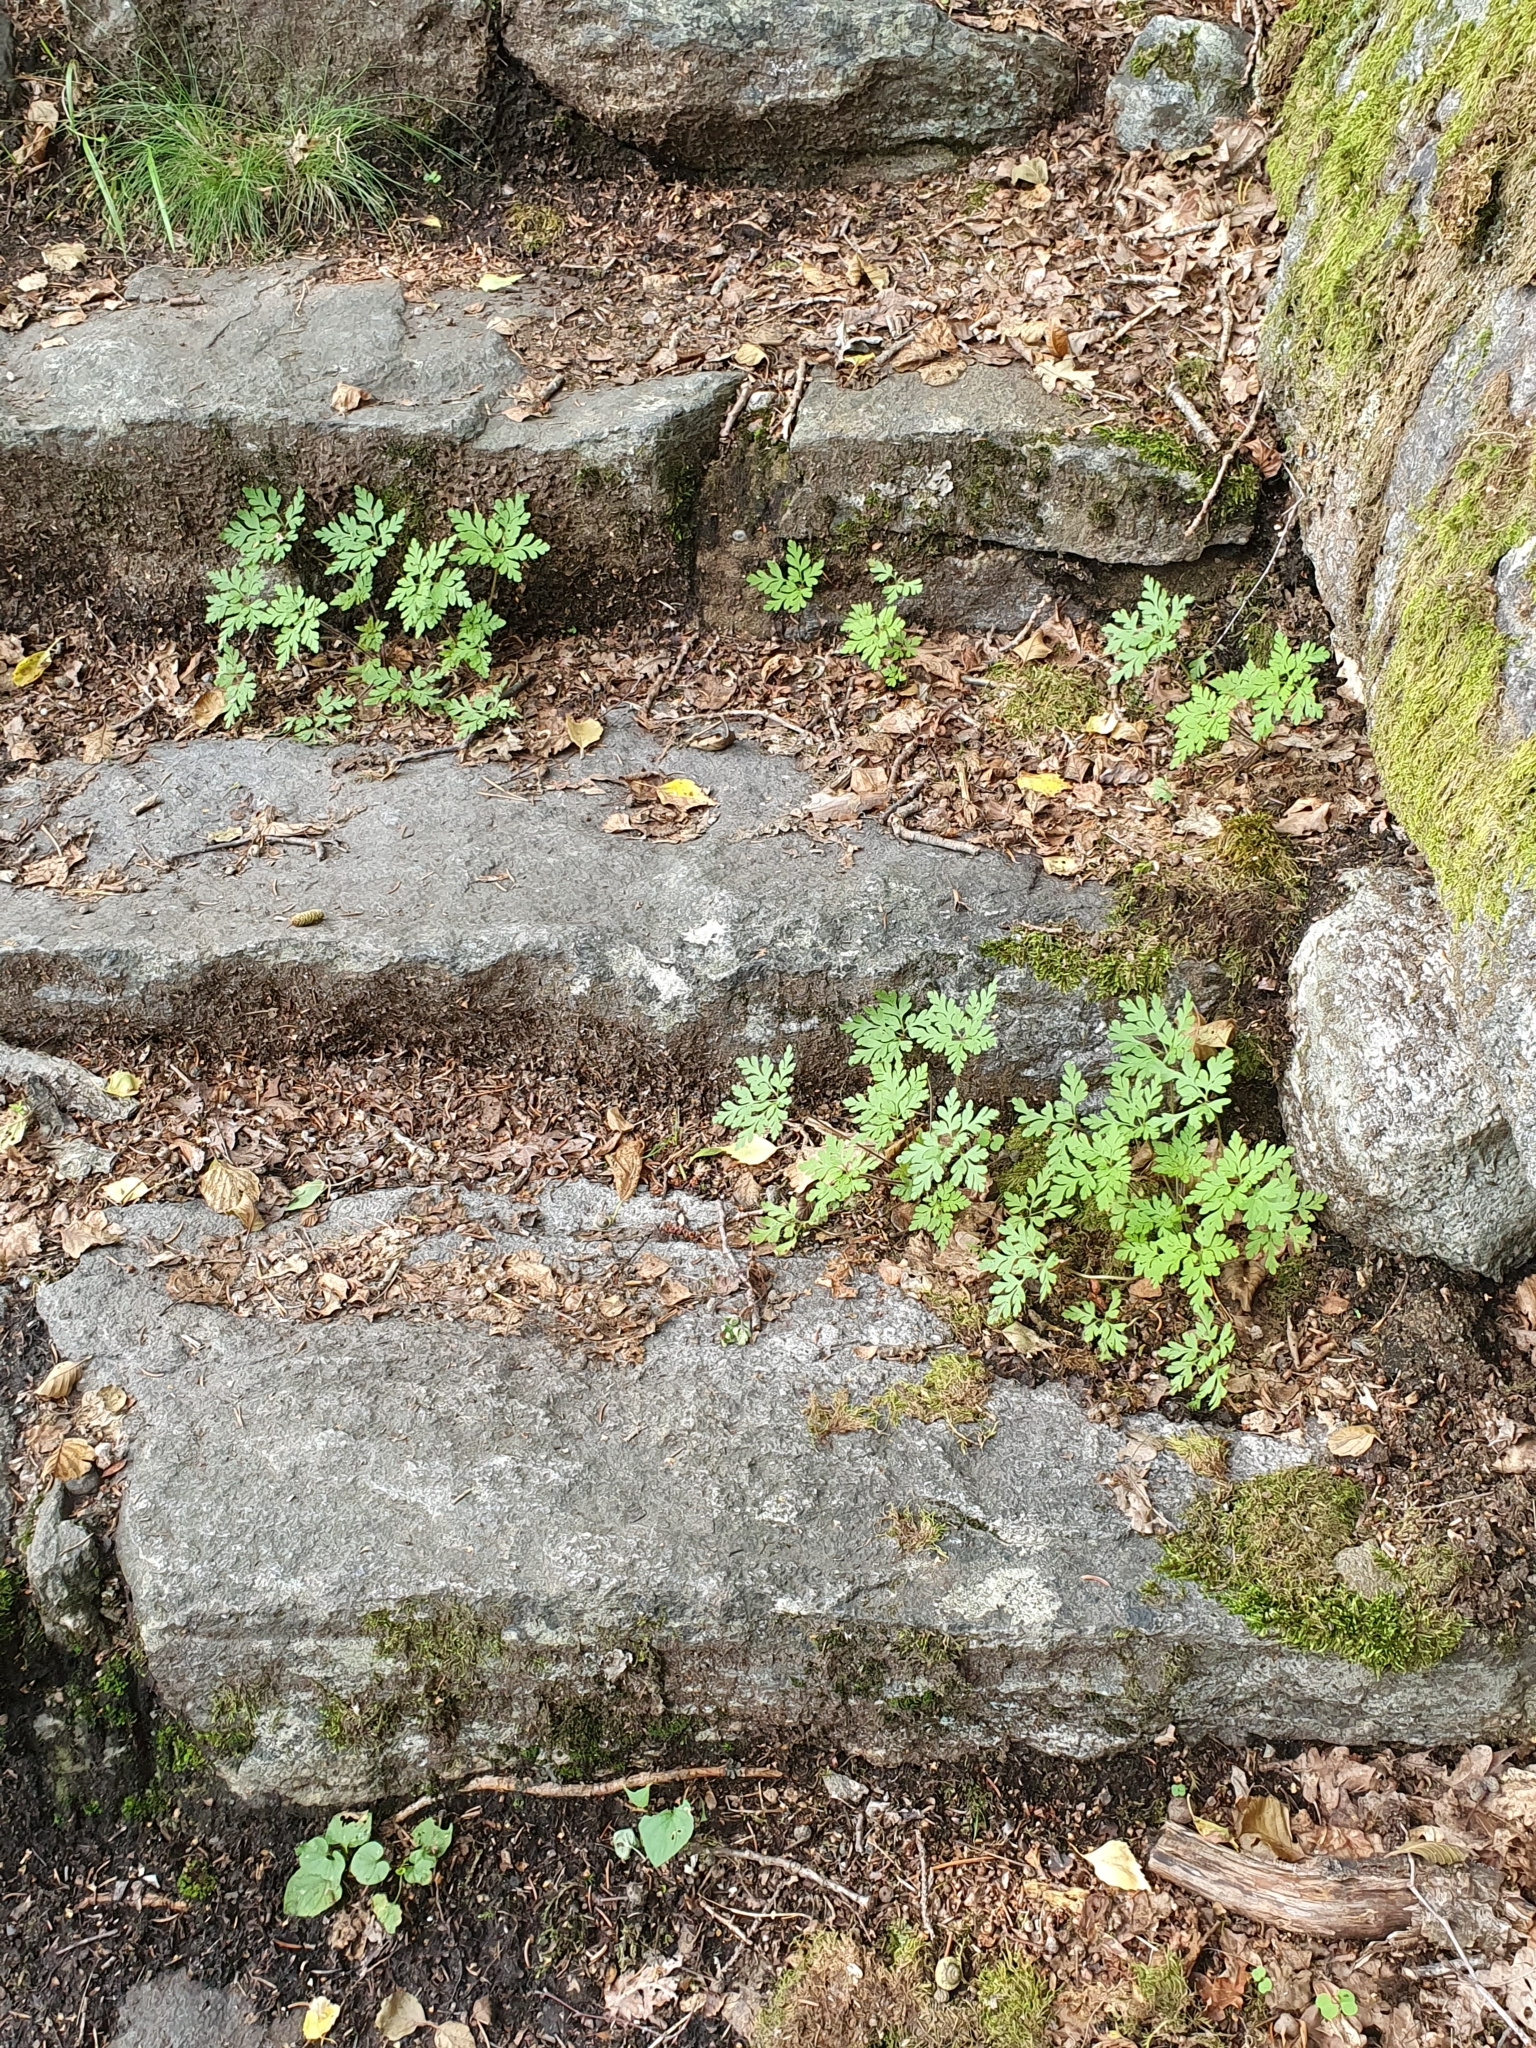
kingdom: Plantae
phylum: Tracheophyta
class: Magnoliopsida
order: Geraniales
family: Geraniaceae
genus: Geranium
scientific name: Geranium robertianum
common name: Herb-robert
